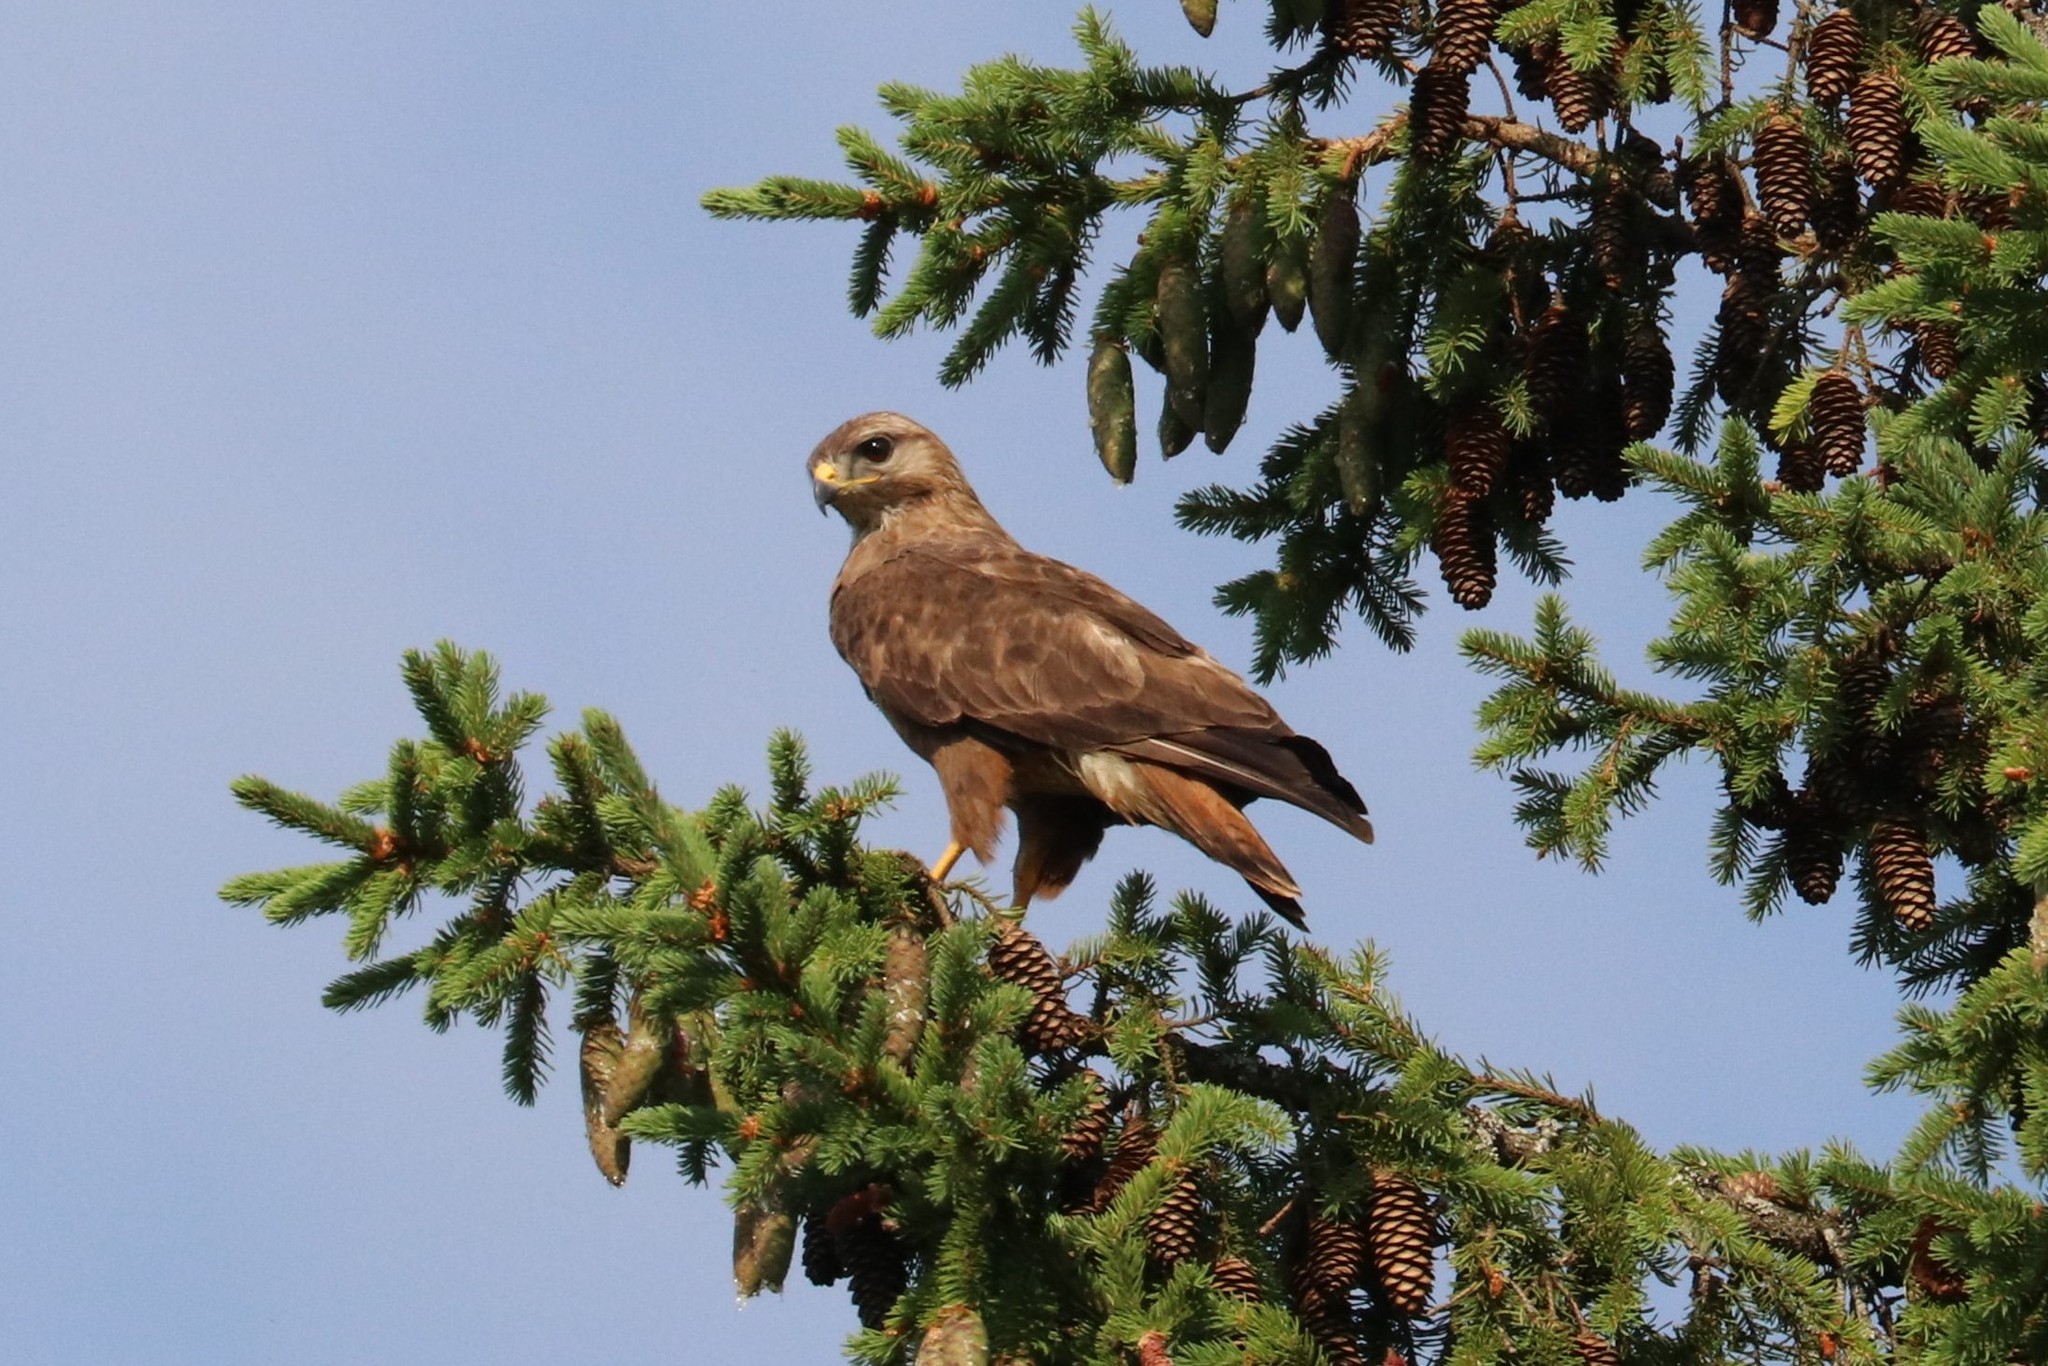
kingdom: Animalia
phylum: Chordata
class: Aves
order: Accipitriformes
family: Accipitridae
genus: Buteo
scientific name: Buteo buteo
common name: Common buzzard
